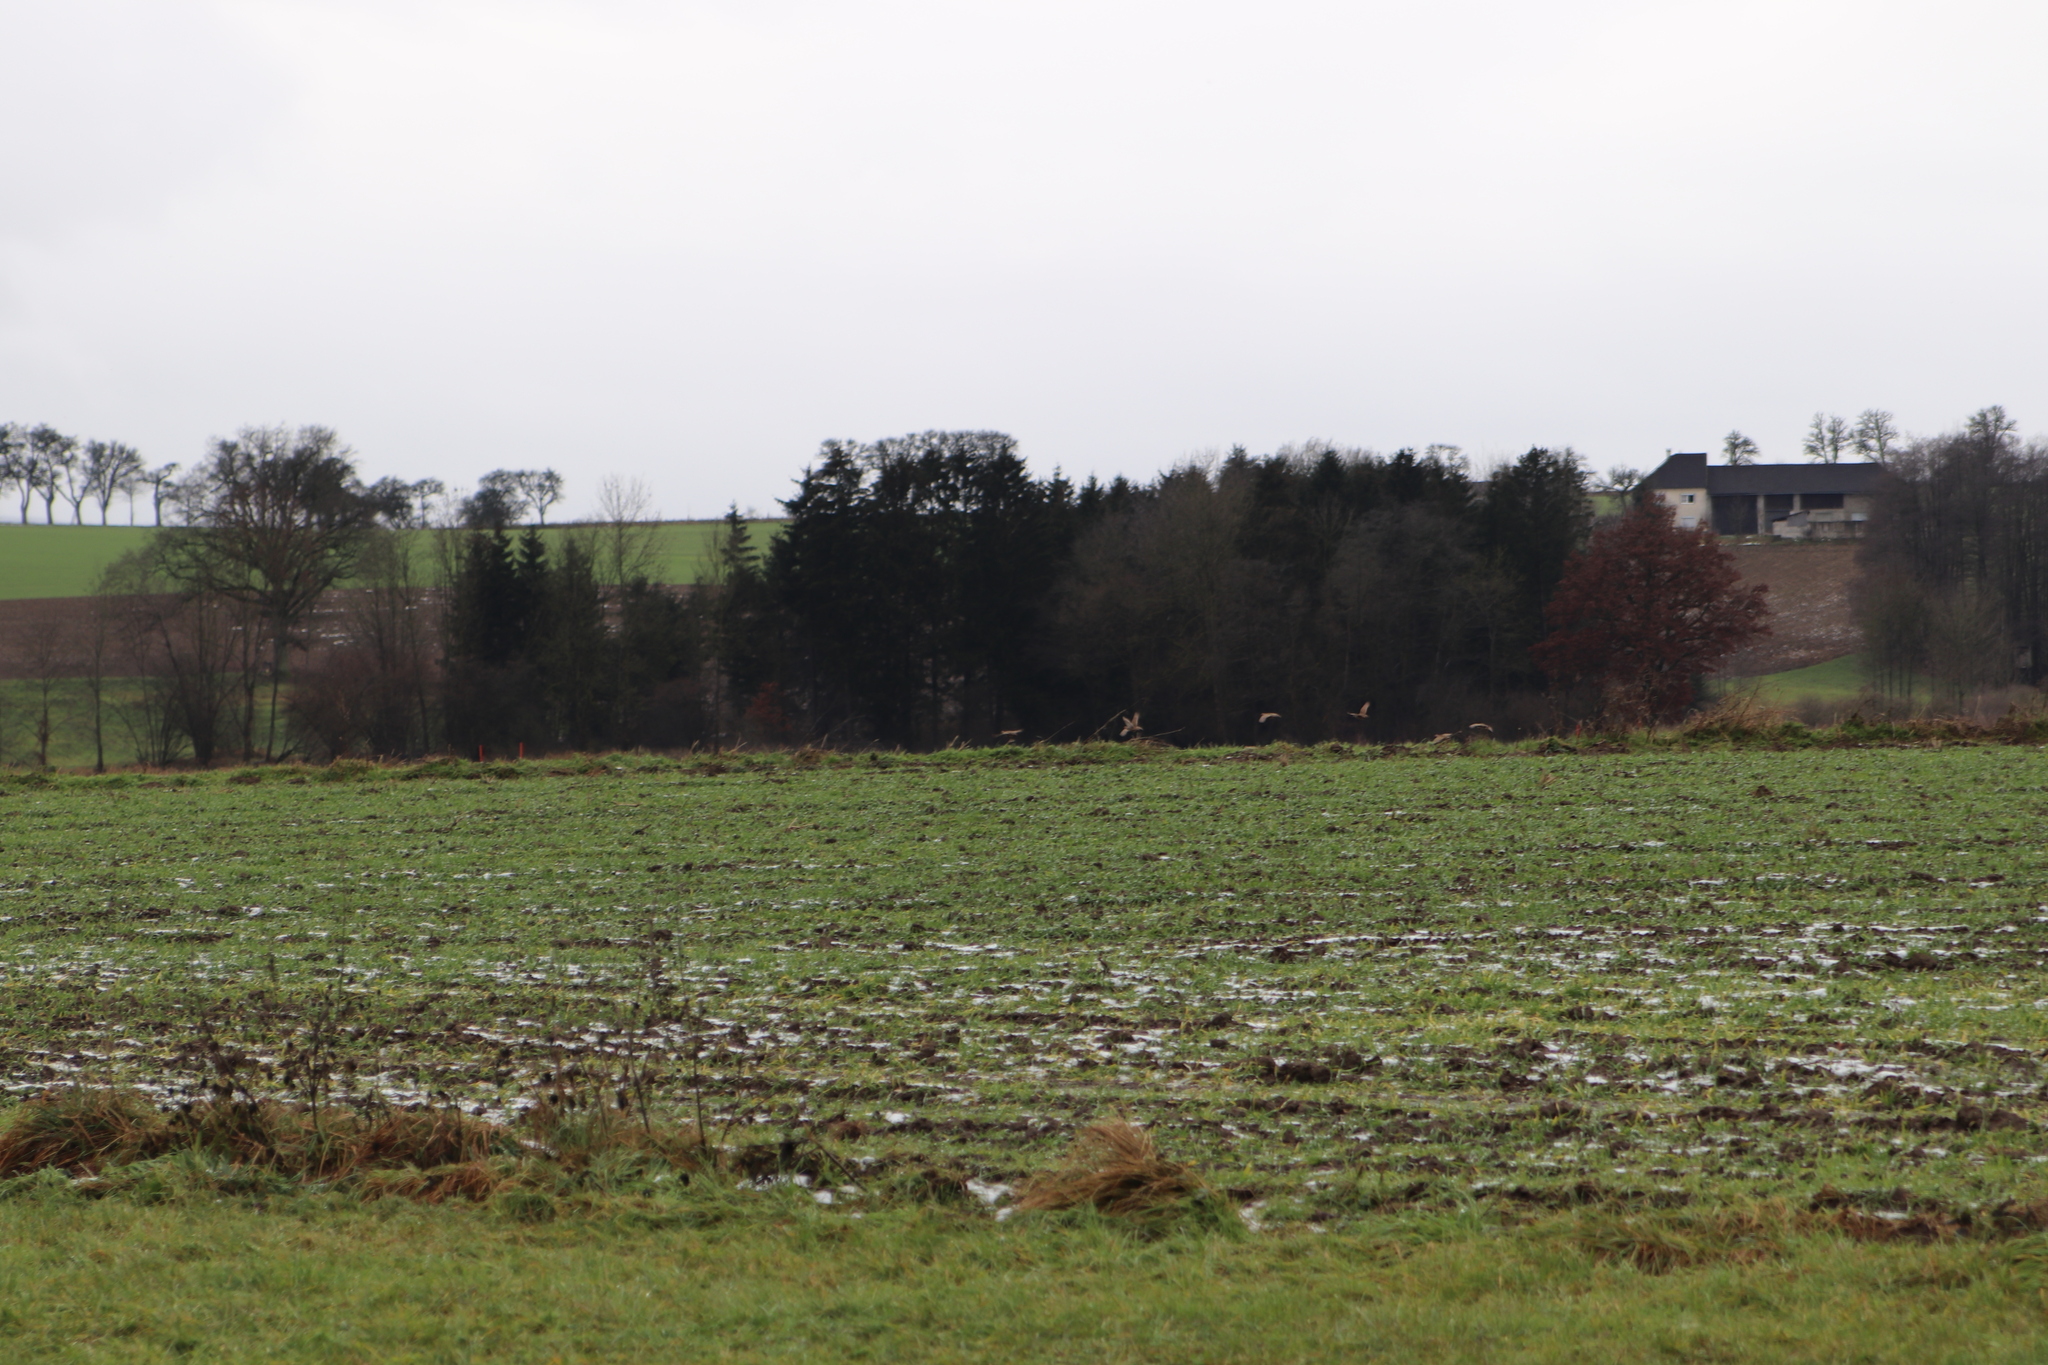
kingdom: Animalia
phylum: Chordata
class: Aves
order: Galliformes
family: Phasianidae
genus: Phasianus
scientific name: Phasianus colchicus
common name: Common pheasant
